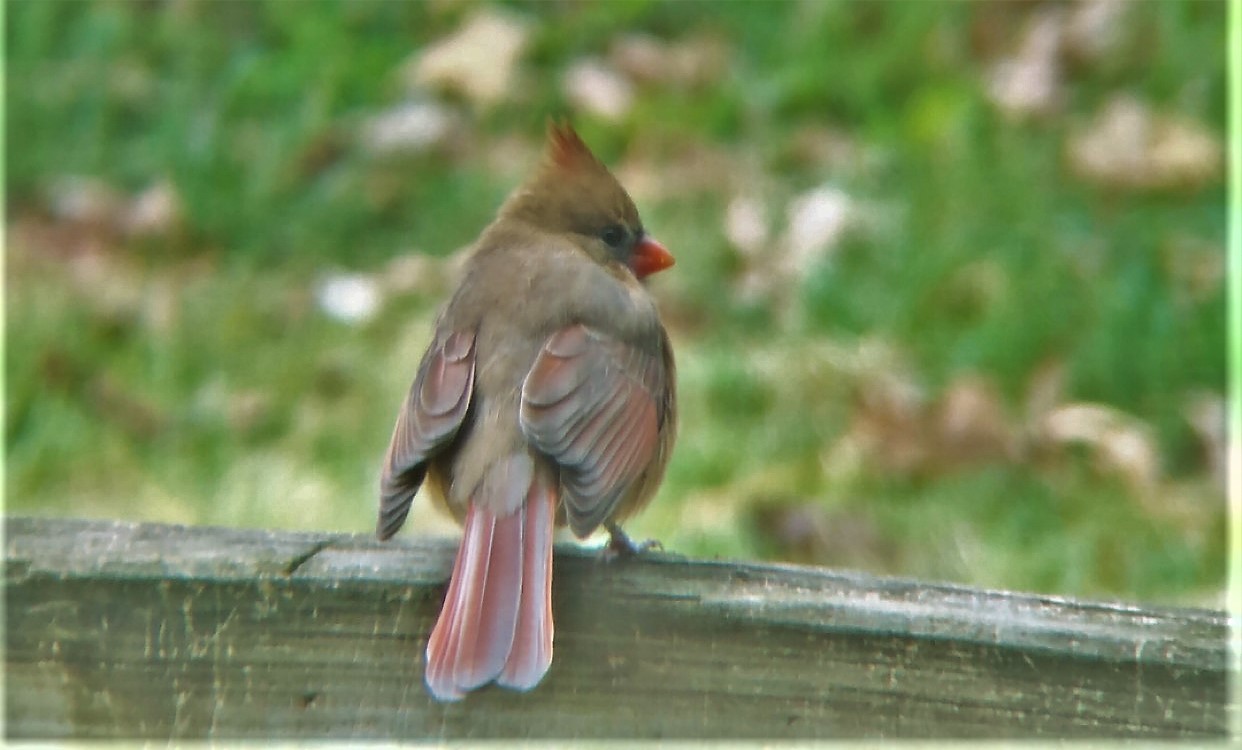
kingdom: Animalia
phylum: Chordata
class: Aves
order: Passeriformes
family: Cardinalidae
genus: Cardinalis
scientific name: Cardinalis cardinalis
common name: Northern cardinal
